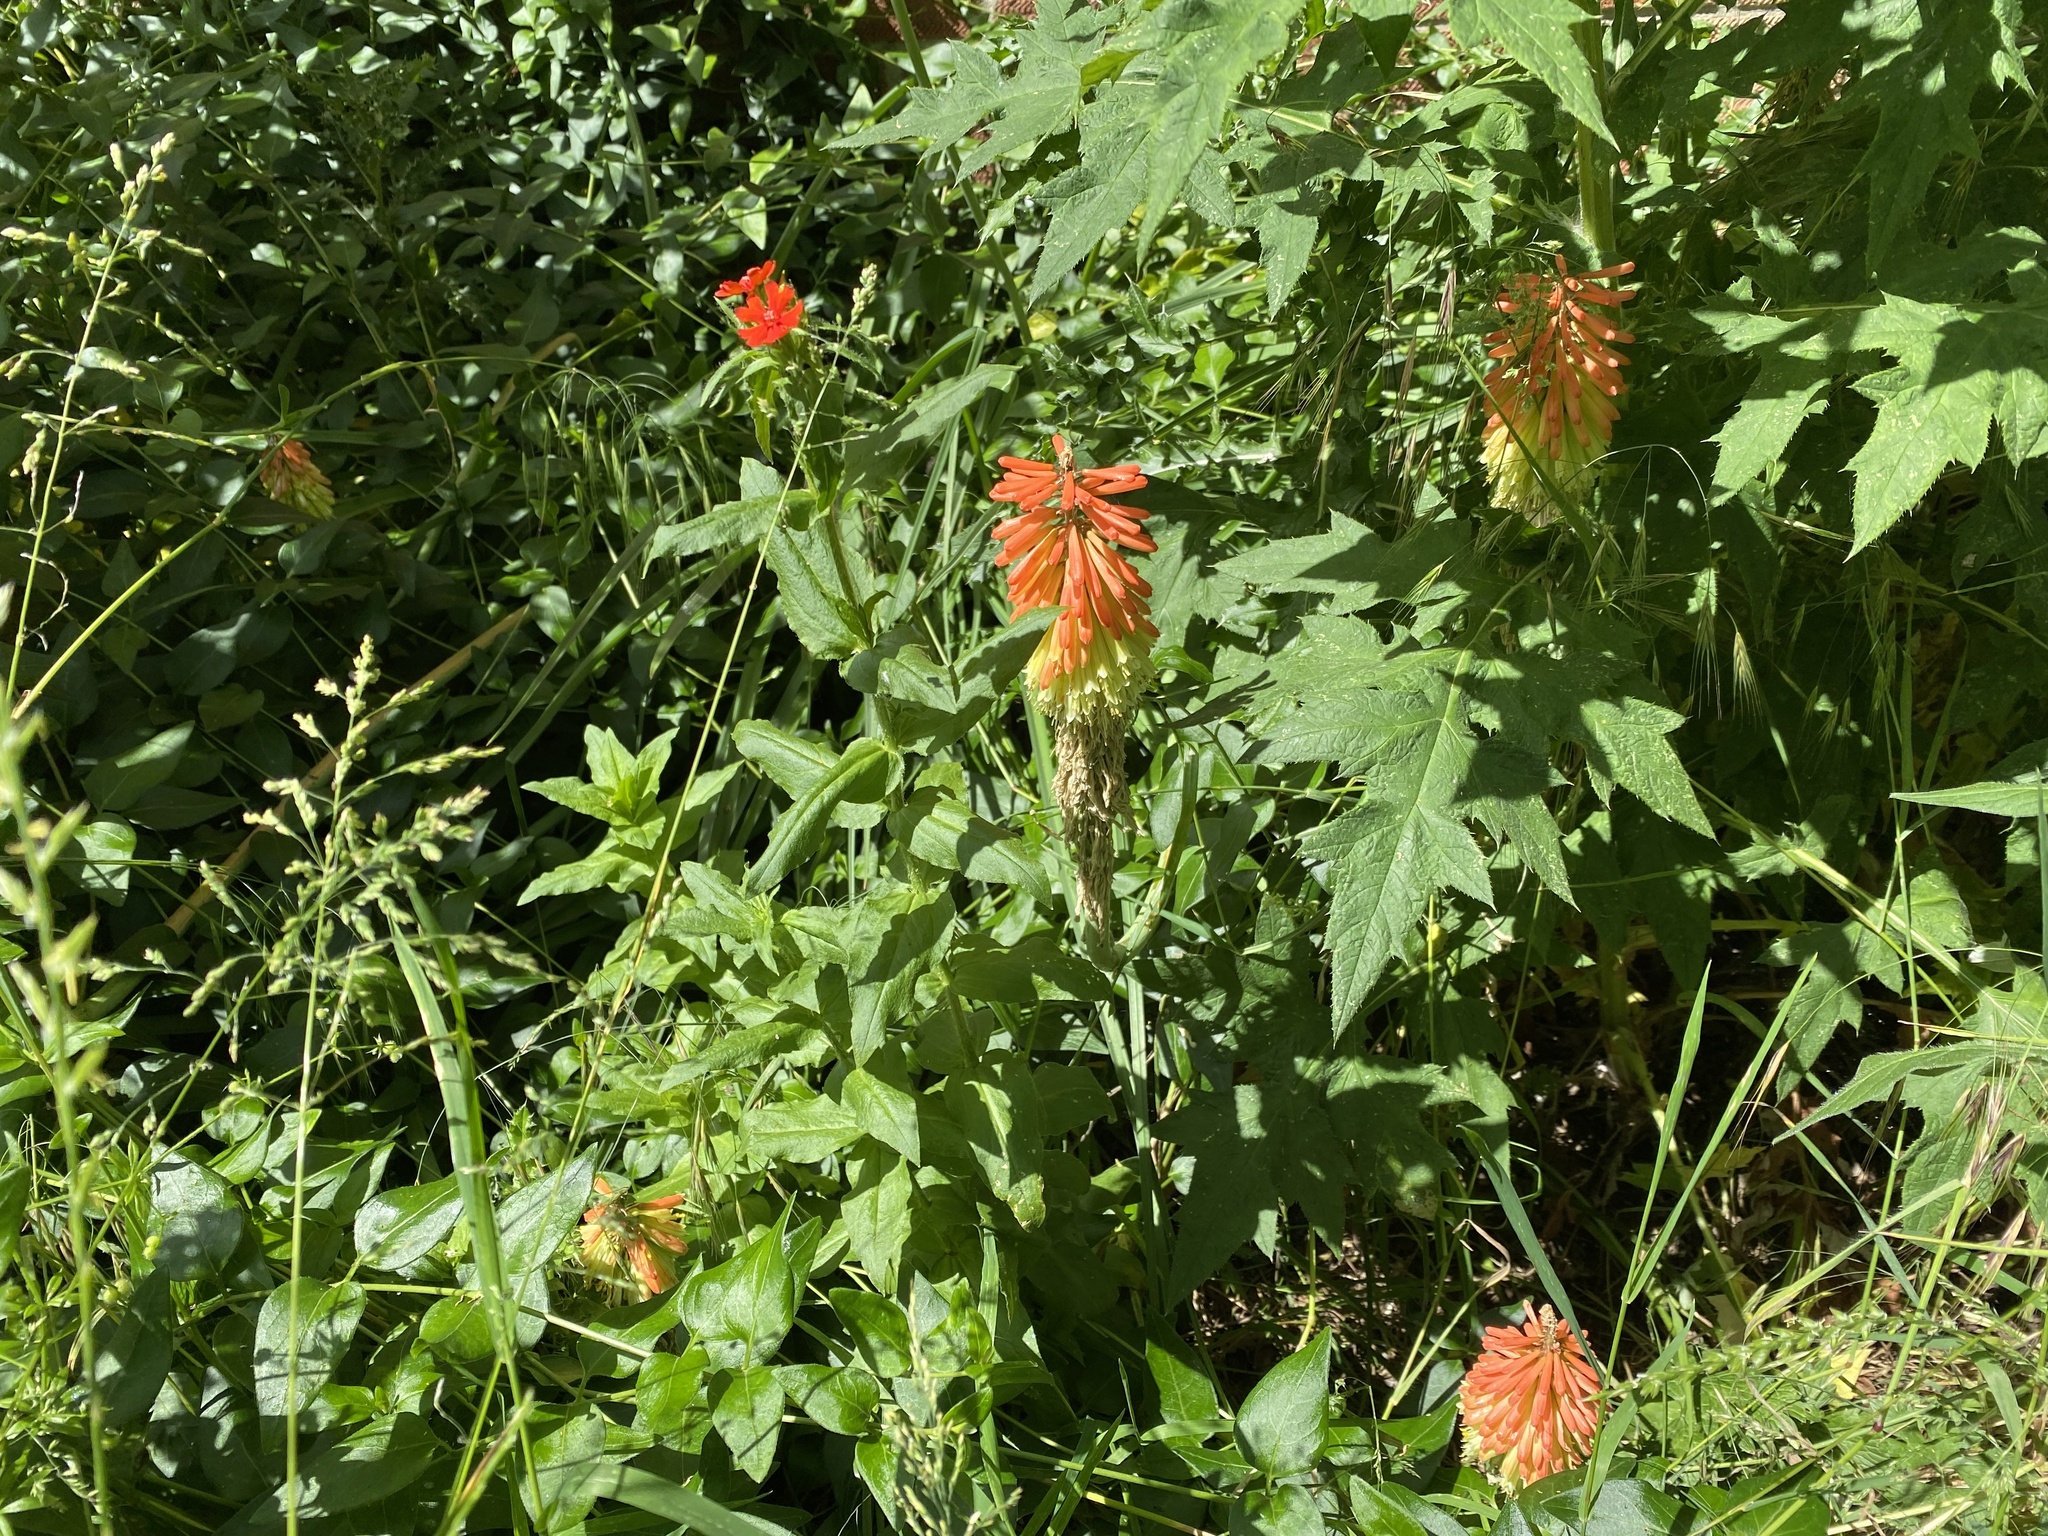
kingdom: Plantae
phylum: Tracheophyta
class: Magnoliopsida
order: Caryophyllales
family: Caryophyllaceae
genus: Silene
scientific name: Silene chalcedonica
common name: Maltese-cross
